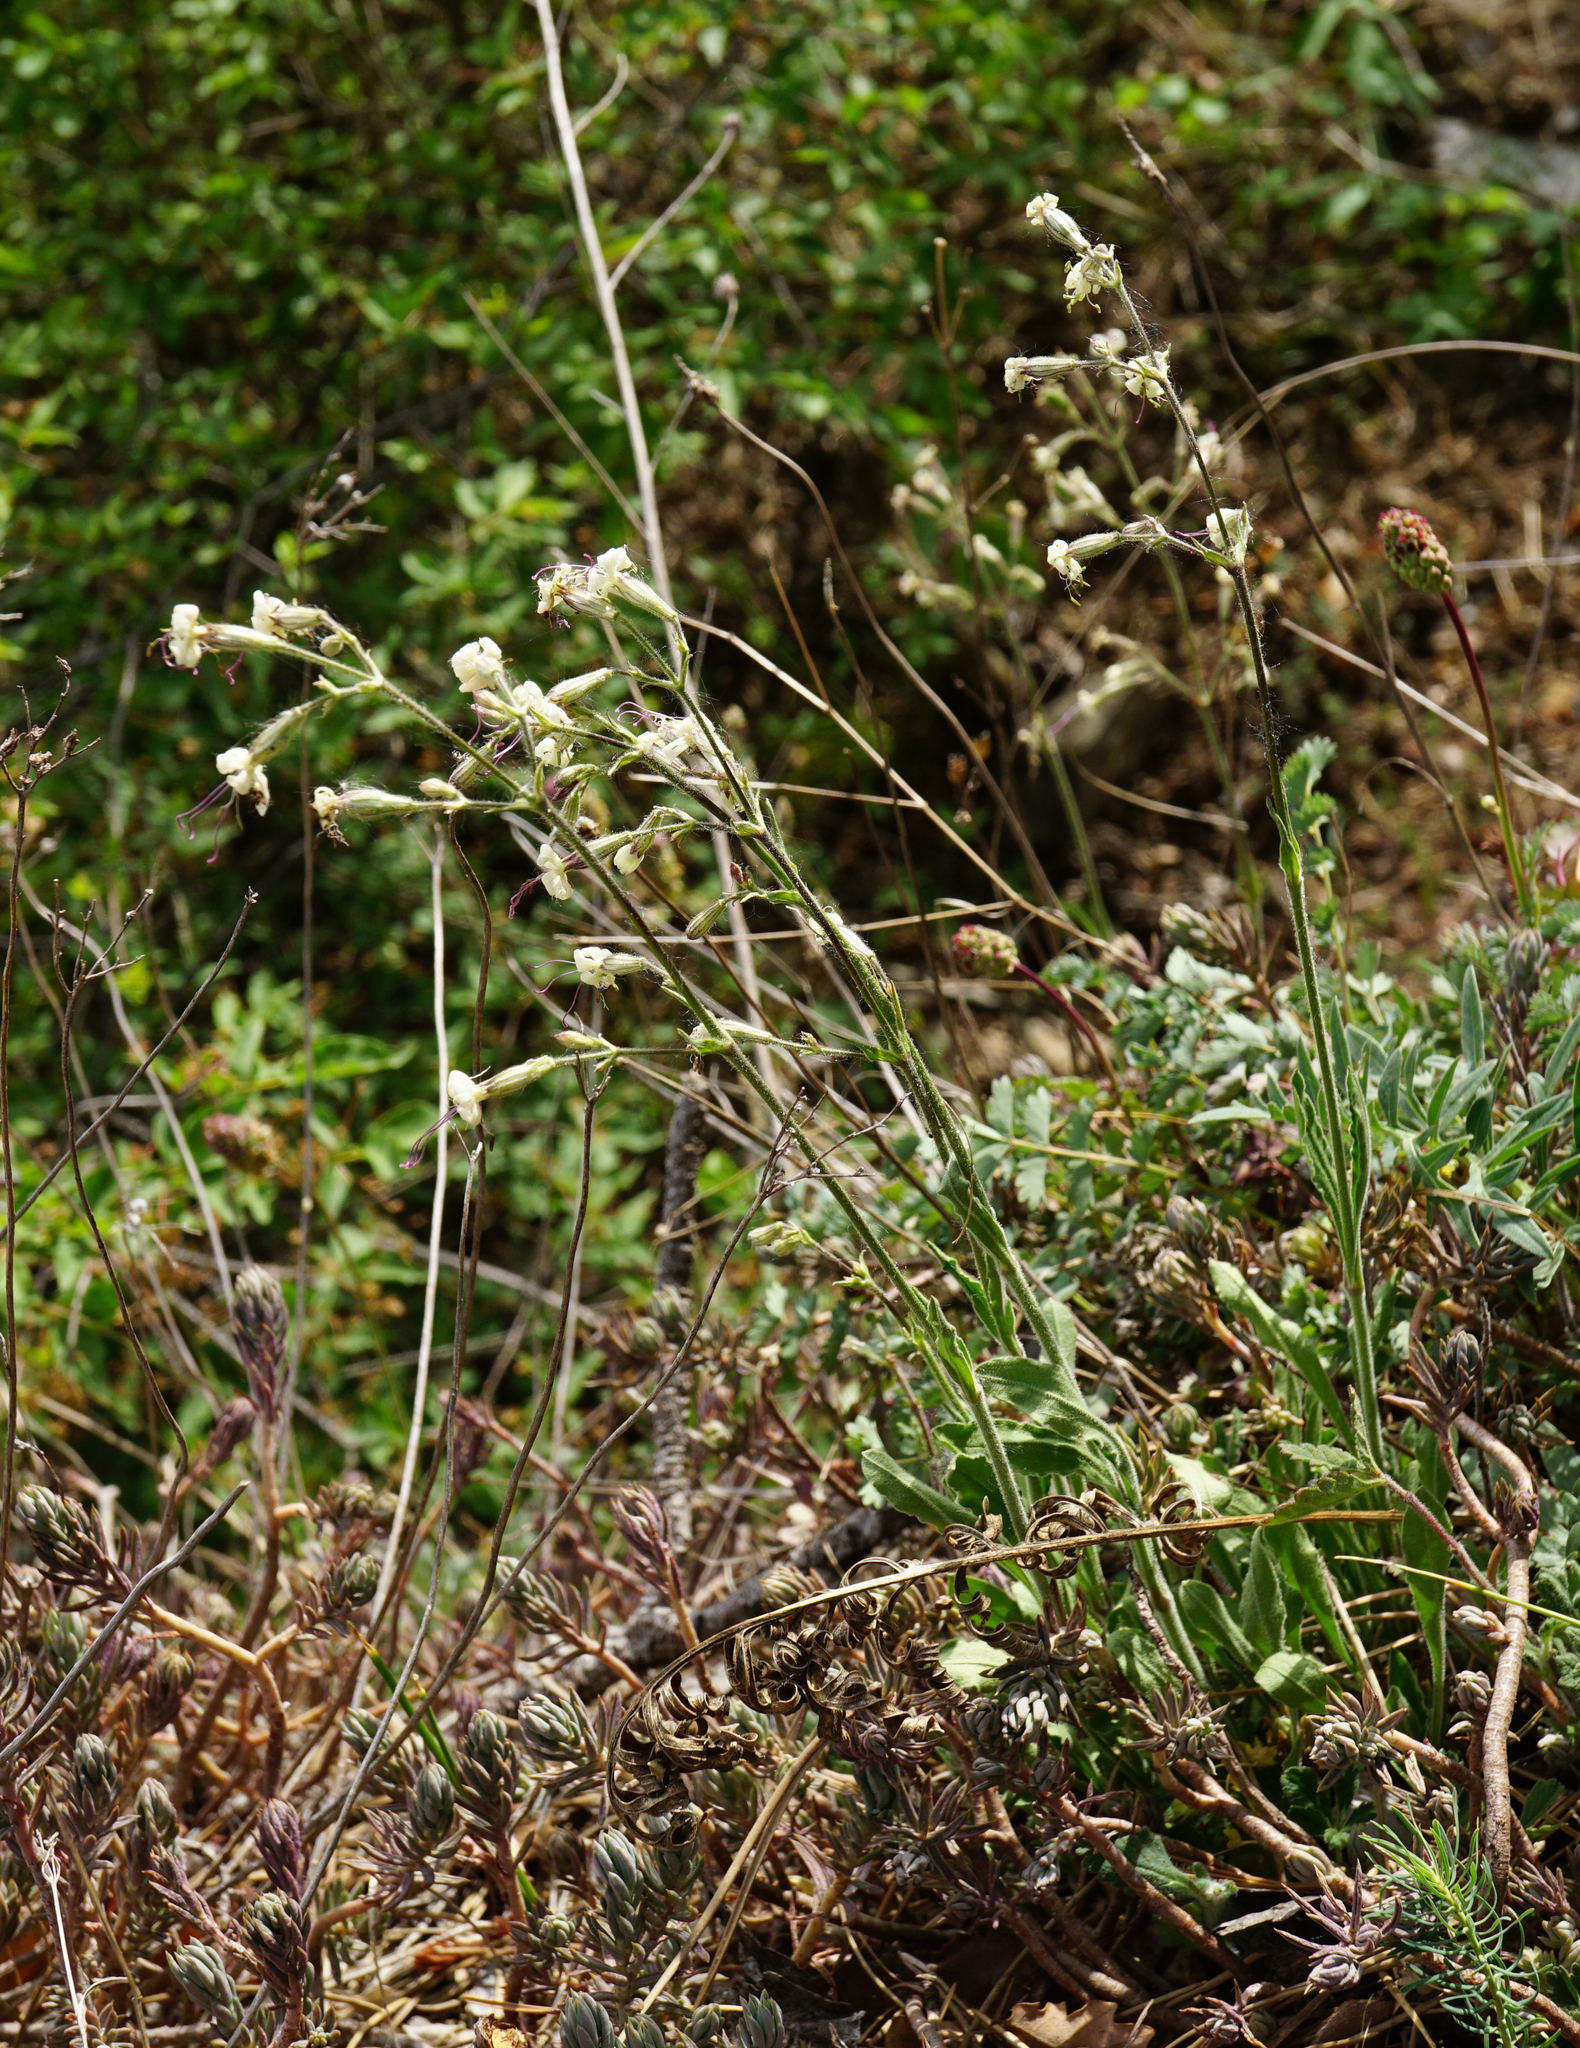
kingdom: Plantae
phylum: Tracheophyta
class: Magnoliopsida
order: Caryophyllales
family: Caryophyllaceae
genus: Silene
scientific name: Silene nutans
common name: Nottingham catchfly
